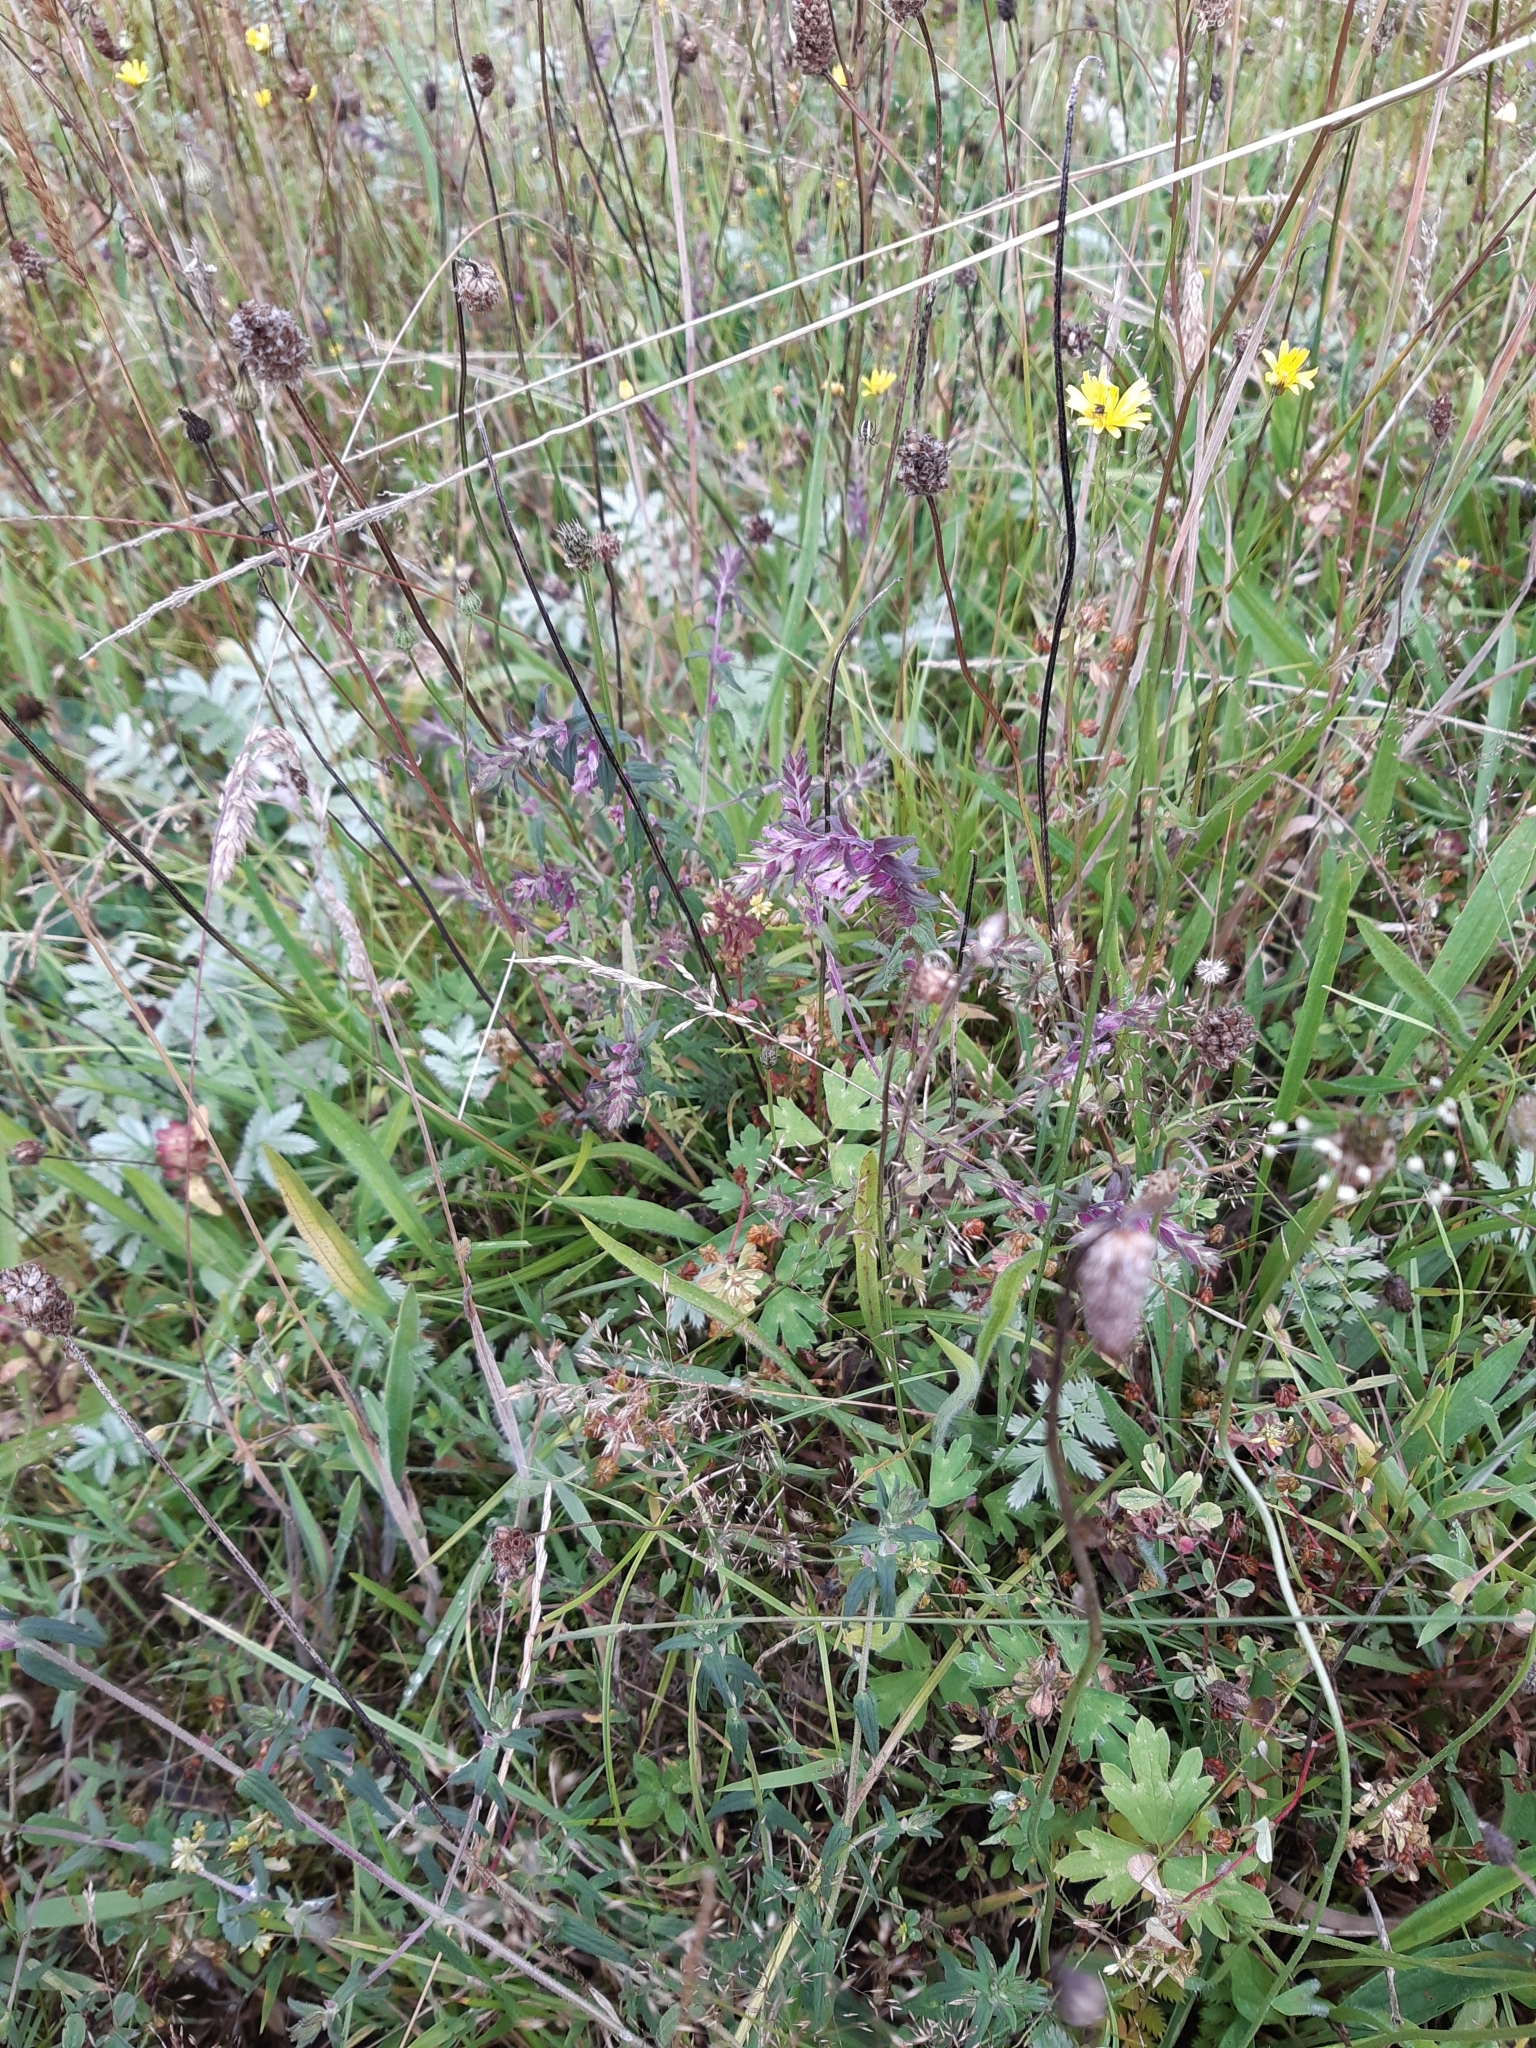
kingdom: Plantae
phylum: Tracheophyta
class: Magnoliopsida
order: Lamiales
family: Orobanchaceae
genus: Odontites
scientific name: Odontites vulgaris
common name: Broomrape
